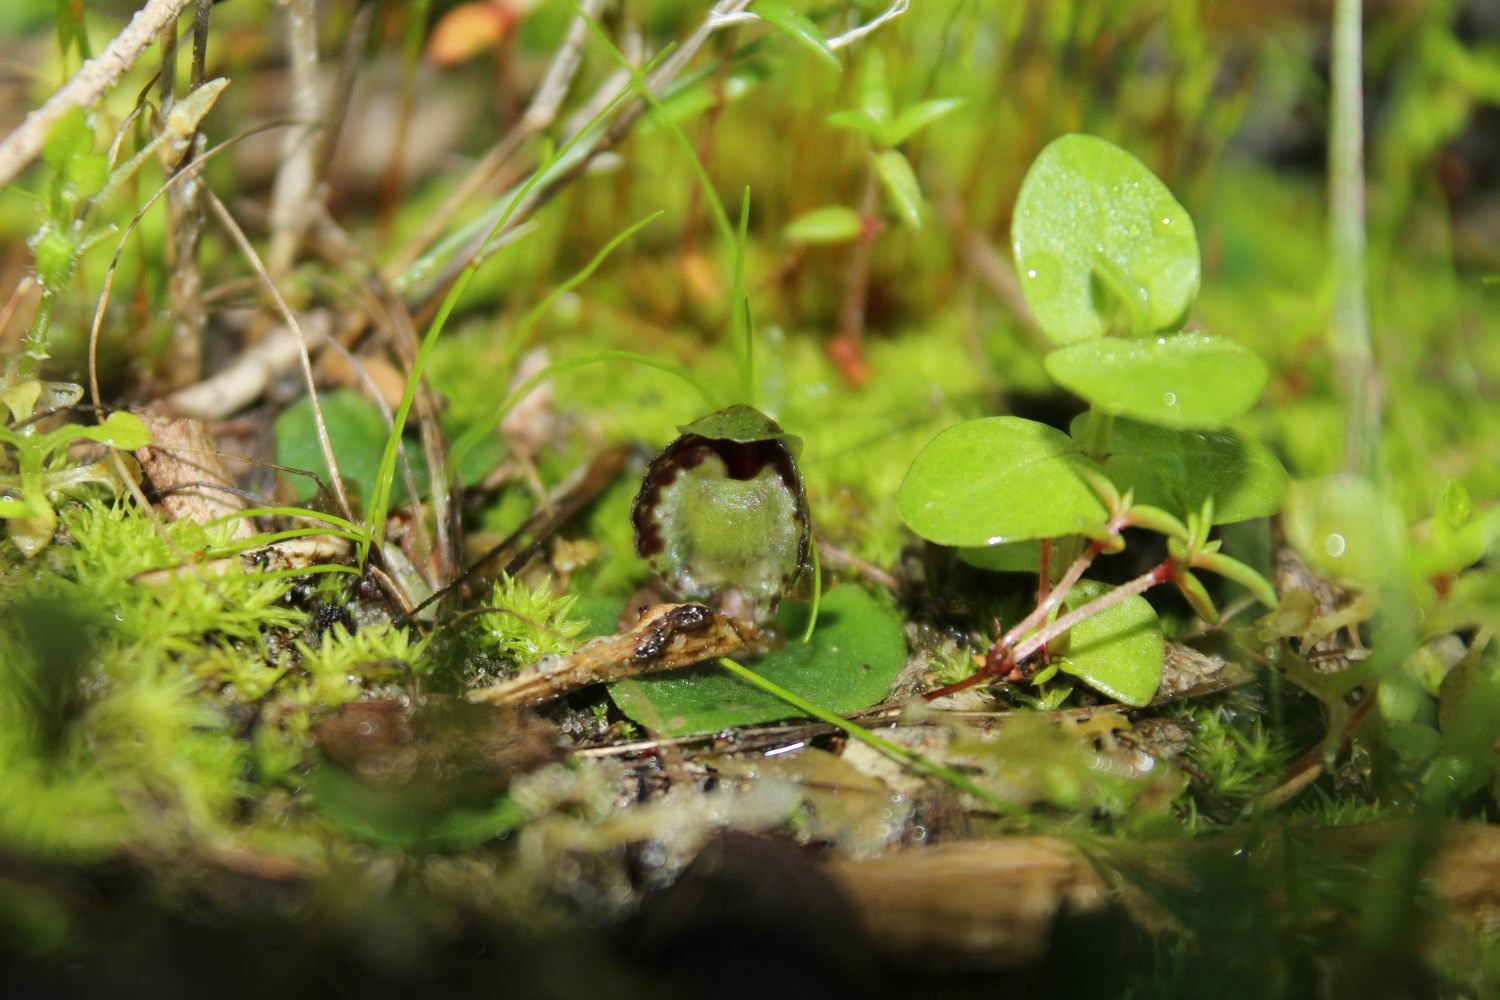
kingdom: Plantae
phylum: Tracheophyta
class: Liliopsida
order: Asparagales
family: Orchidaceae
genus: Corybas
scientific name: Corybas limpidus
